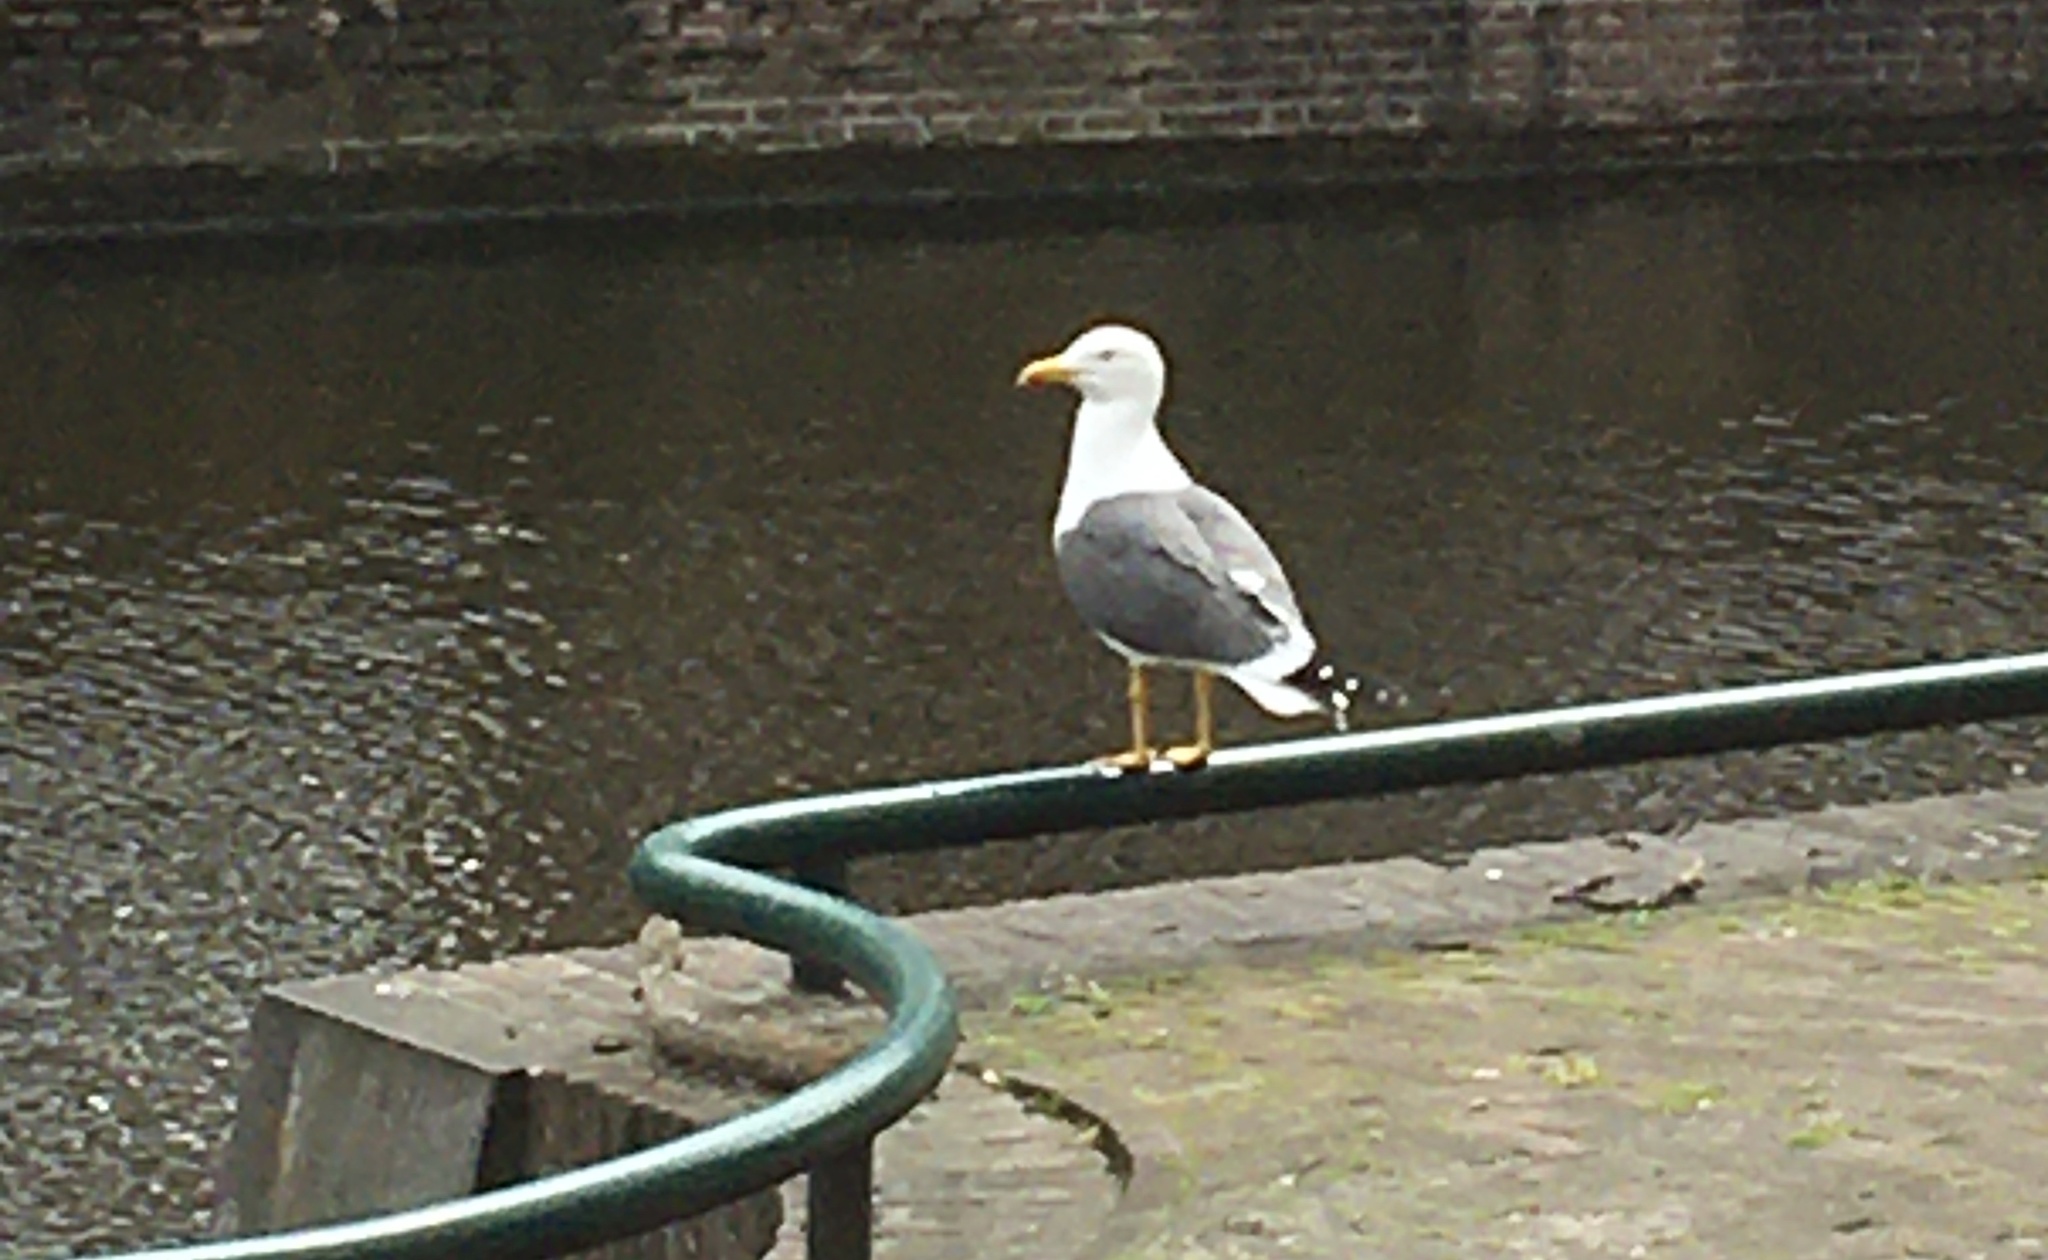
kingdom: Animalia
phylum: Chordata
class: Aves
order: Charadriiformes
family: Laridae
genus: Larus
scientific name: Larus fuscus
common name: Lesser black-backed gull
